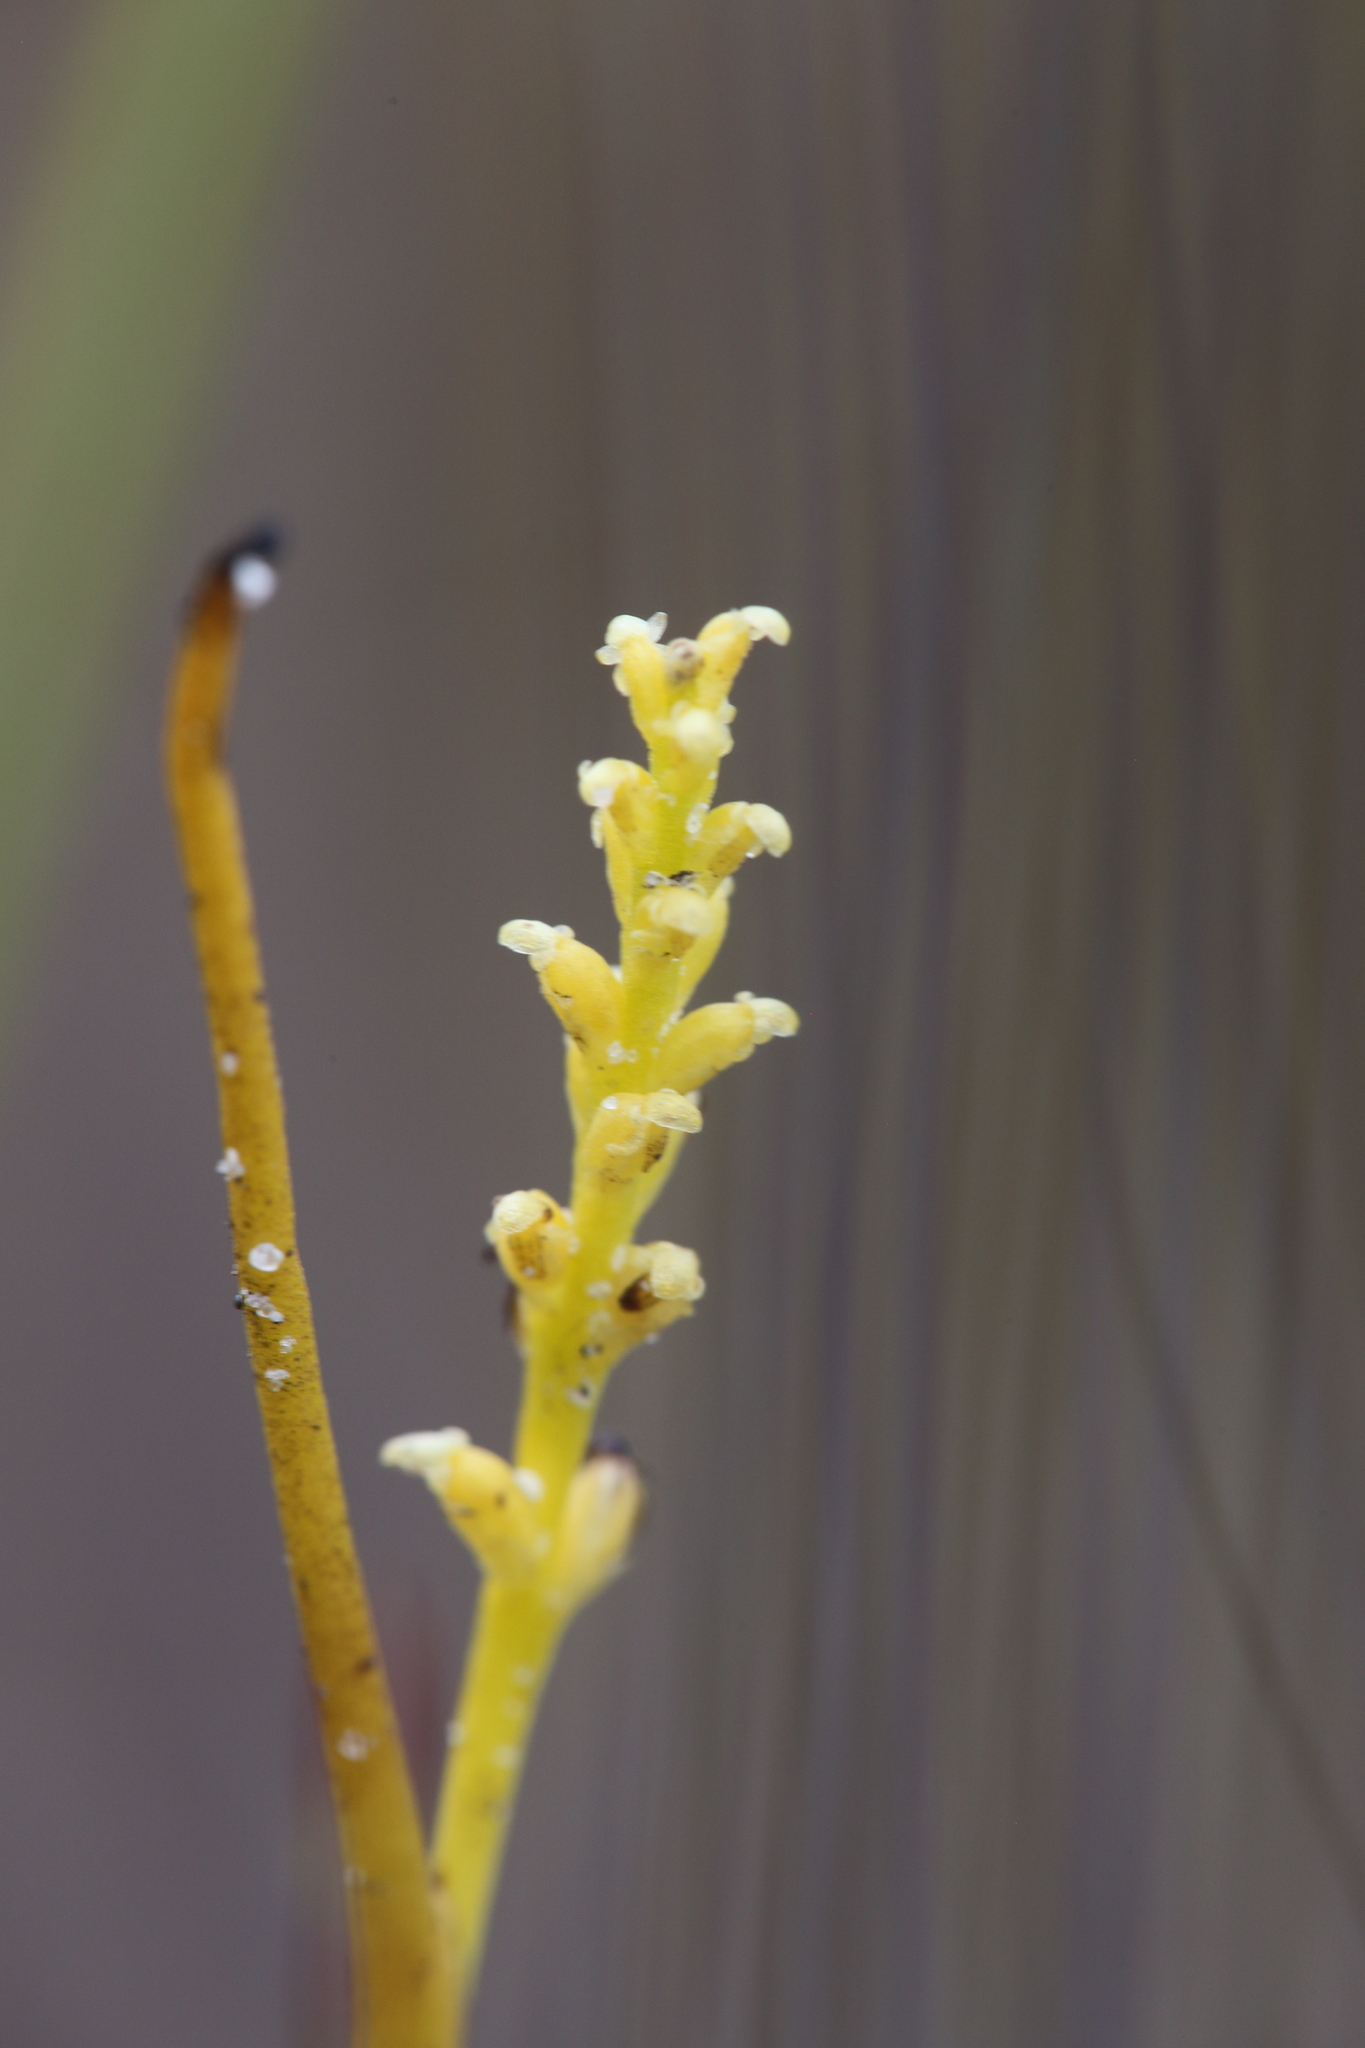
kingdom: Plantae
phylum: Tracheophyta
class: Liliopsida
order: Asparagales
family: Orchidaceae
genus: Microtis
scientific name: Microtis atrata
